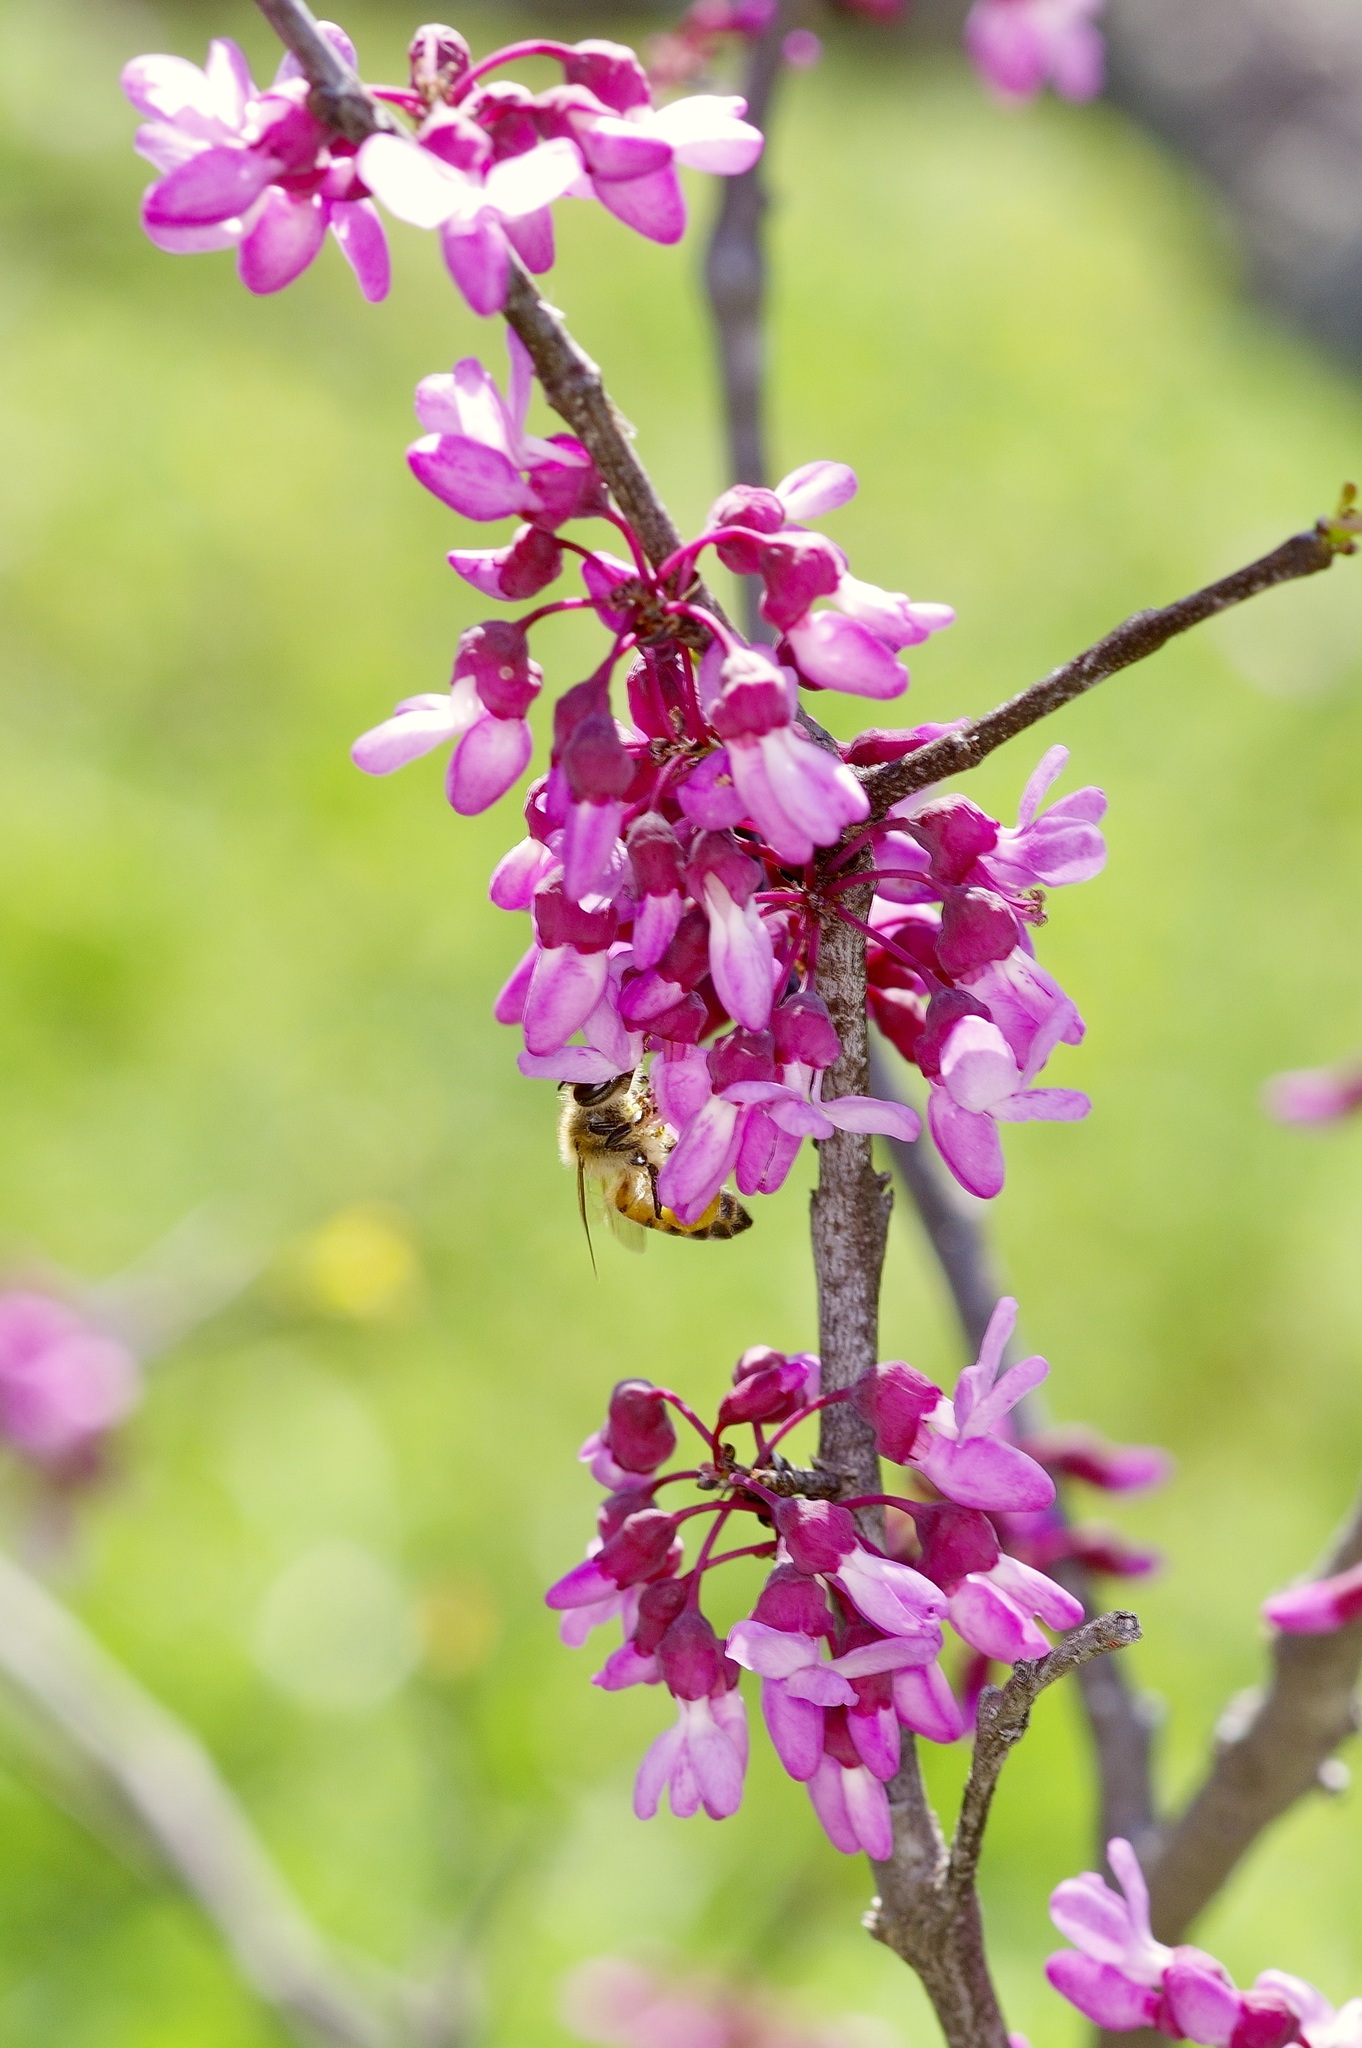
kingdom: Animalia
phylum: Arthropoda
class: Insecta
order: Hymenoptera
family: Apidae
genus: Apis
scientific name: Apis mellifera
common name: Honey bee
